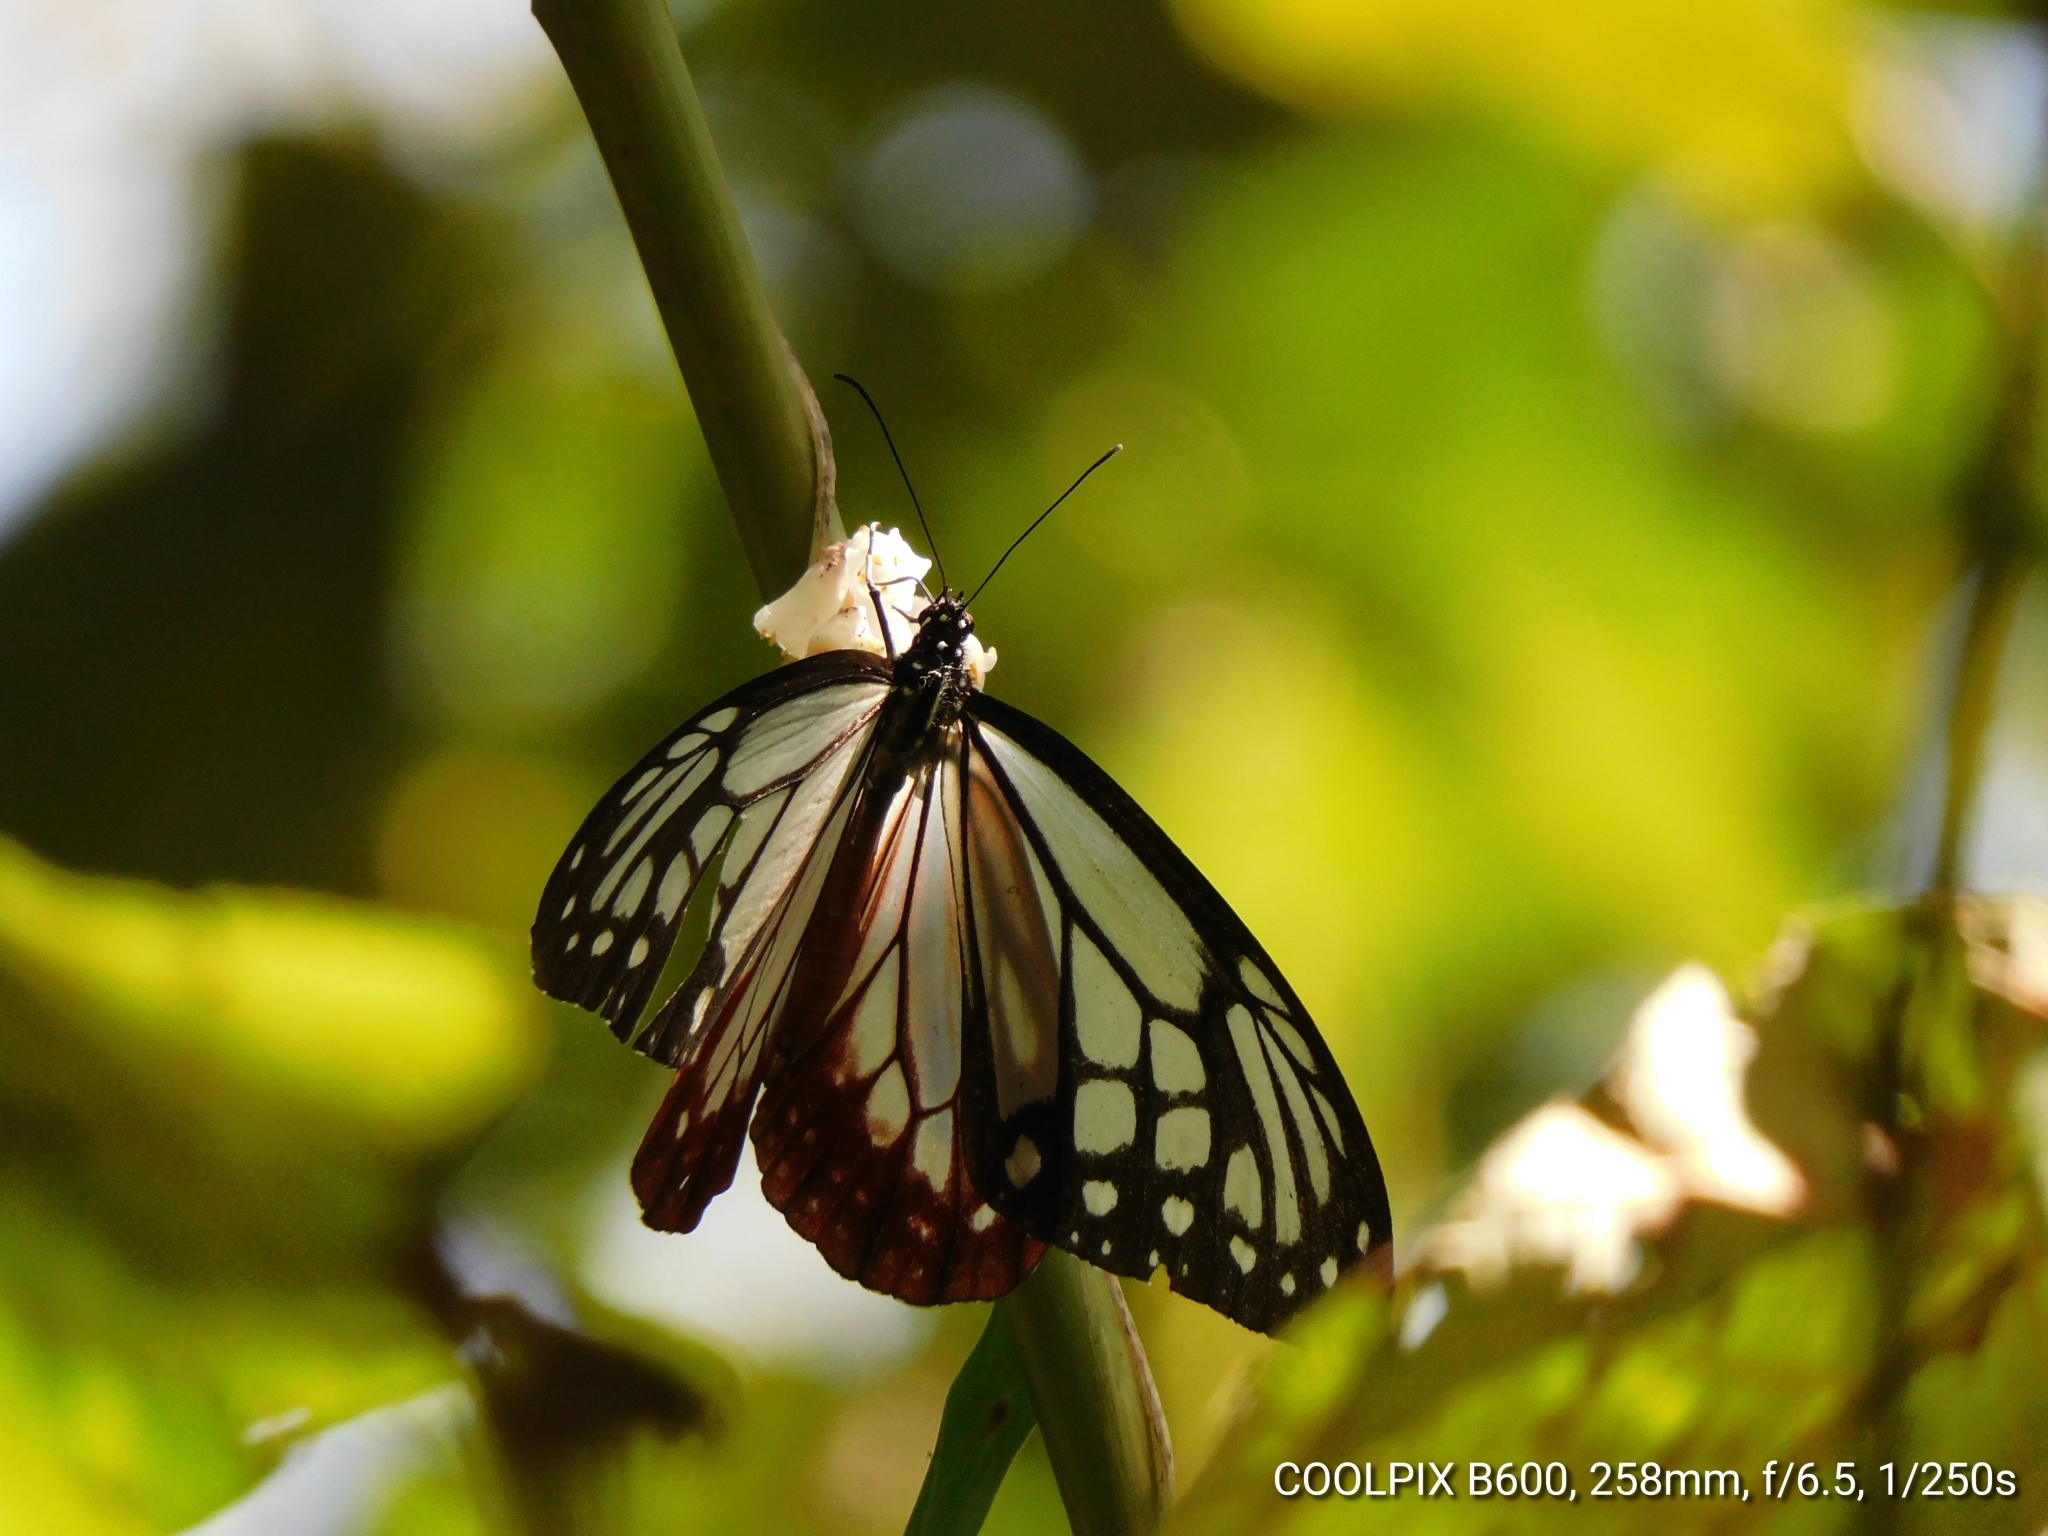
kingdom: Animalia
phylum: Arthropoda
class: Insecta
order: Lepidoptera
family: Nymphalidae
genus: Parantica
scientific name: Parantica sita
